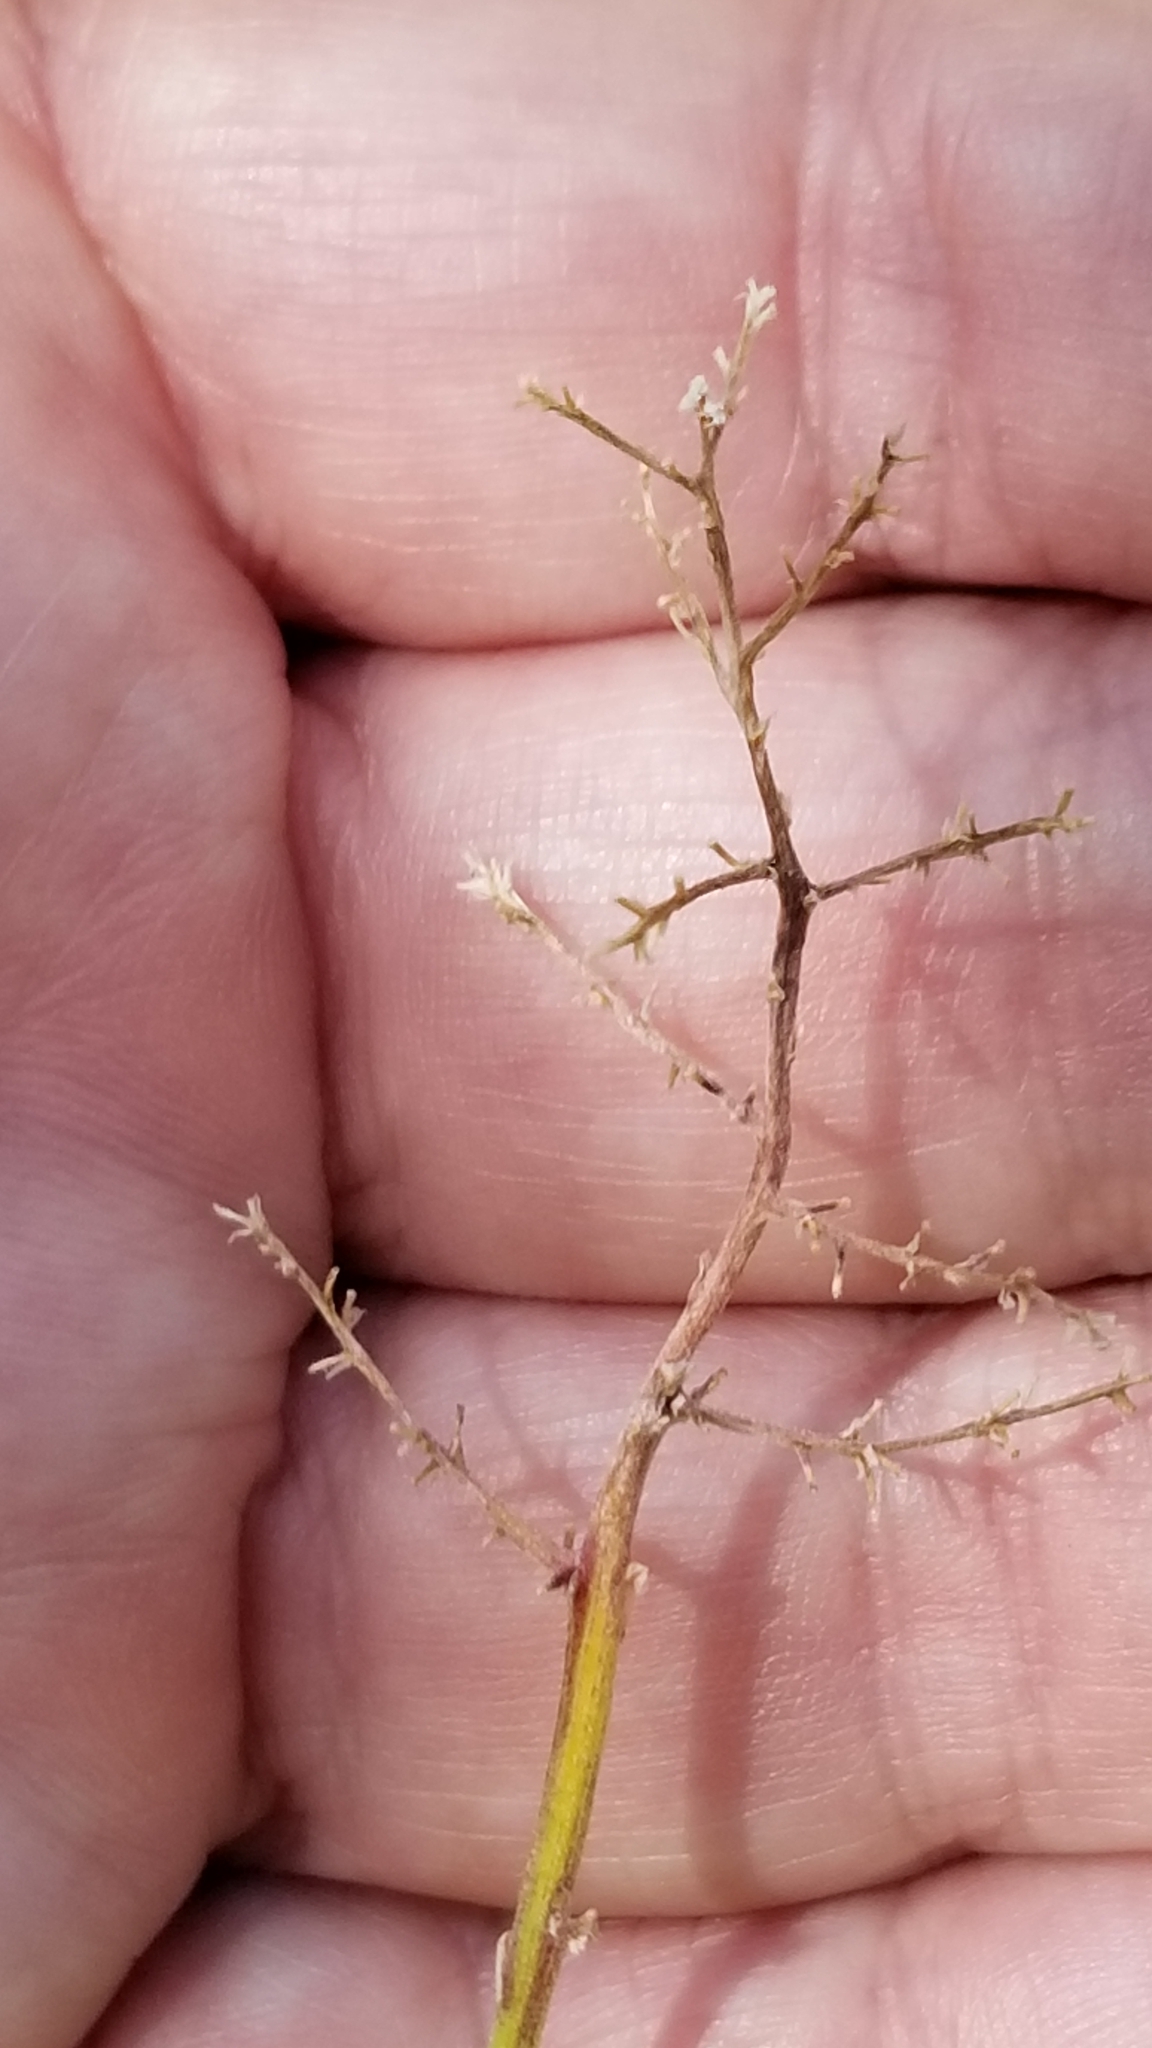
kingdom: Plantae
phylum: Tracheophyta
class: Liliopsida
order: Asparagales
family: Asparagaceae
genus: Maianthemum
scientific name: Maianthemum racemosum
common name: False spikenard
